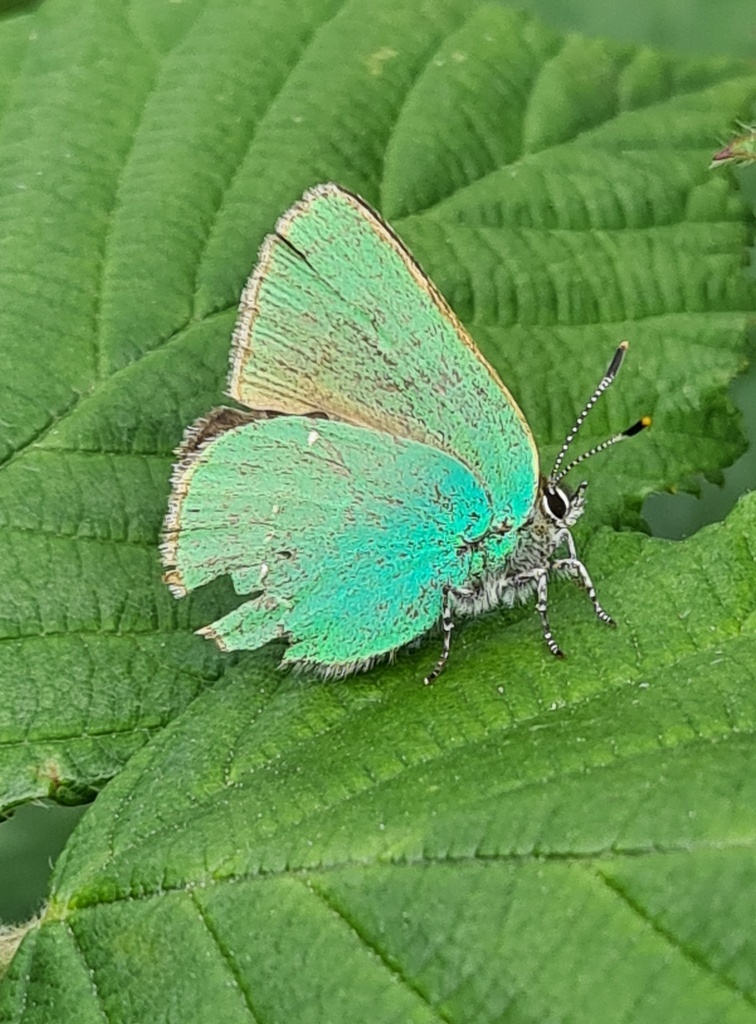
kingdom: Animalia
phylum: Arthropoda
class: Insecta
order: Lepidoptera
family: Lycaenidae
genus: Callophrys
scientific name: Callophrys rubi
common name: Green hairstreak
